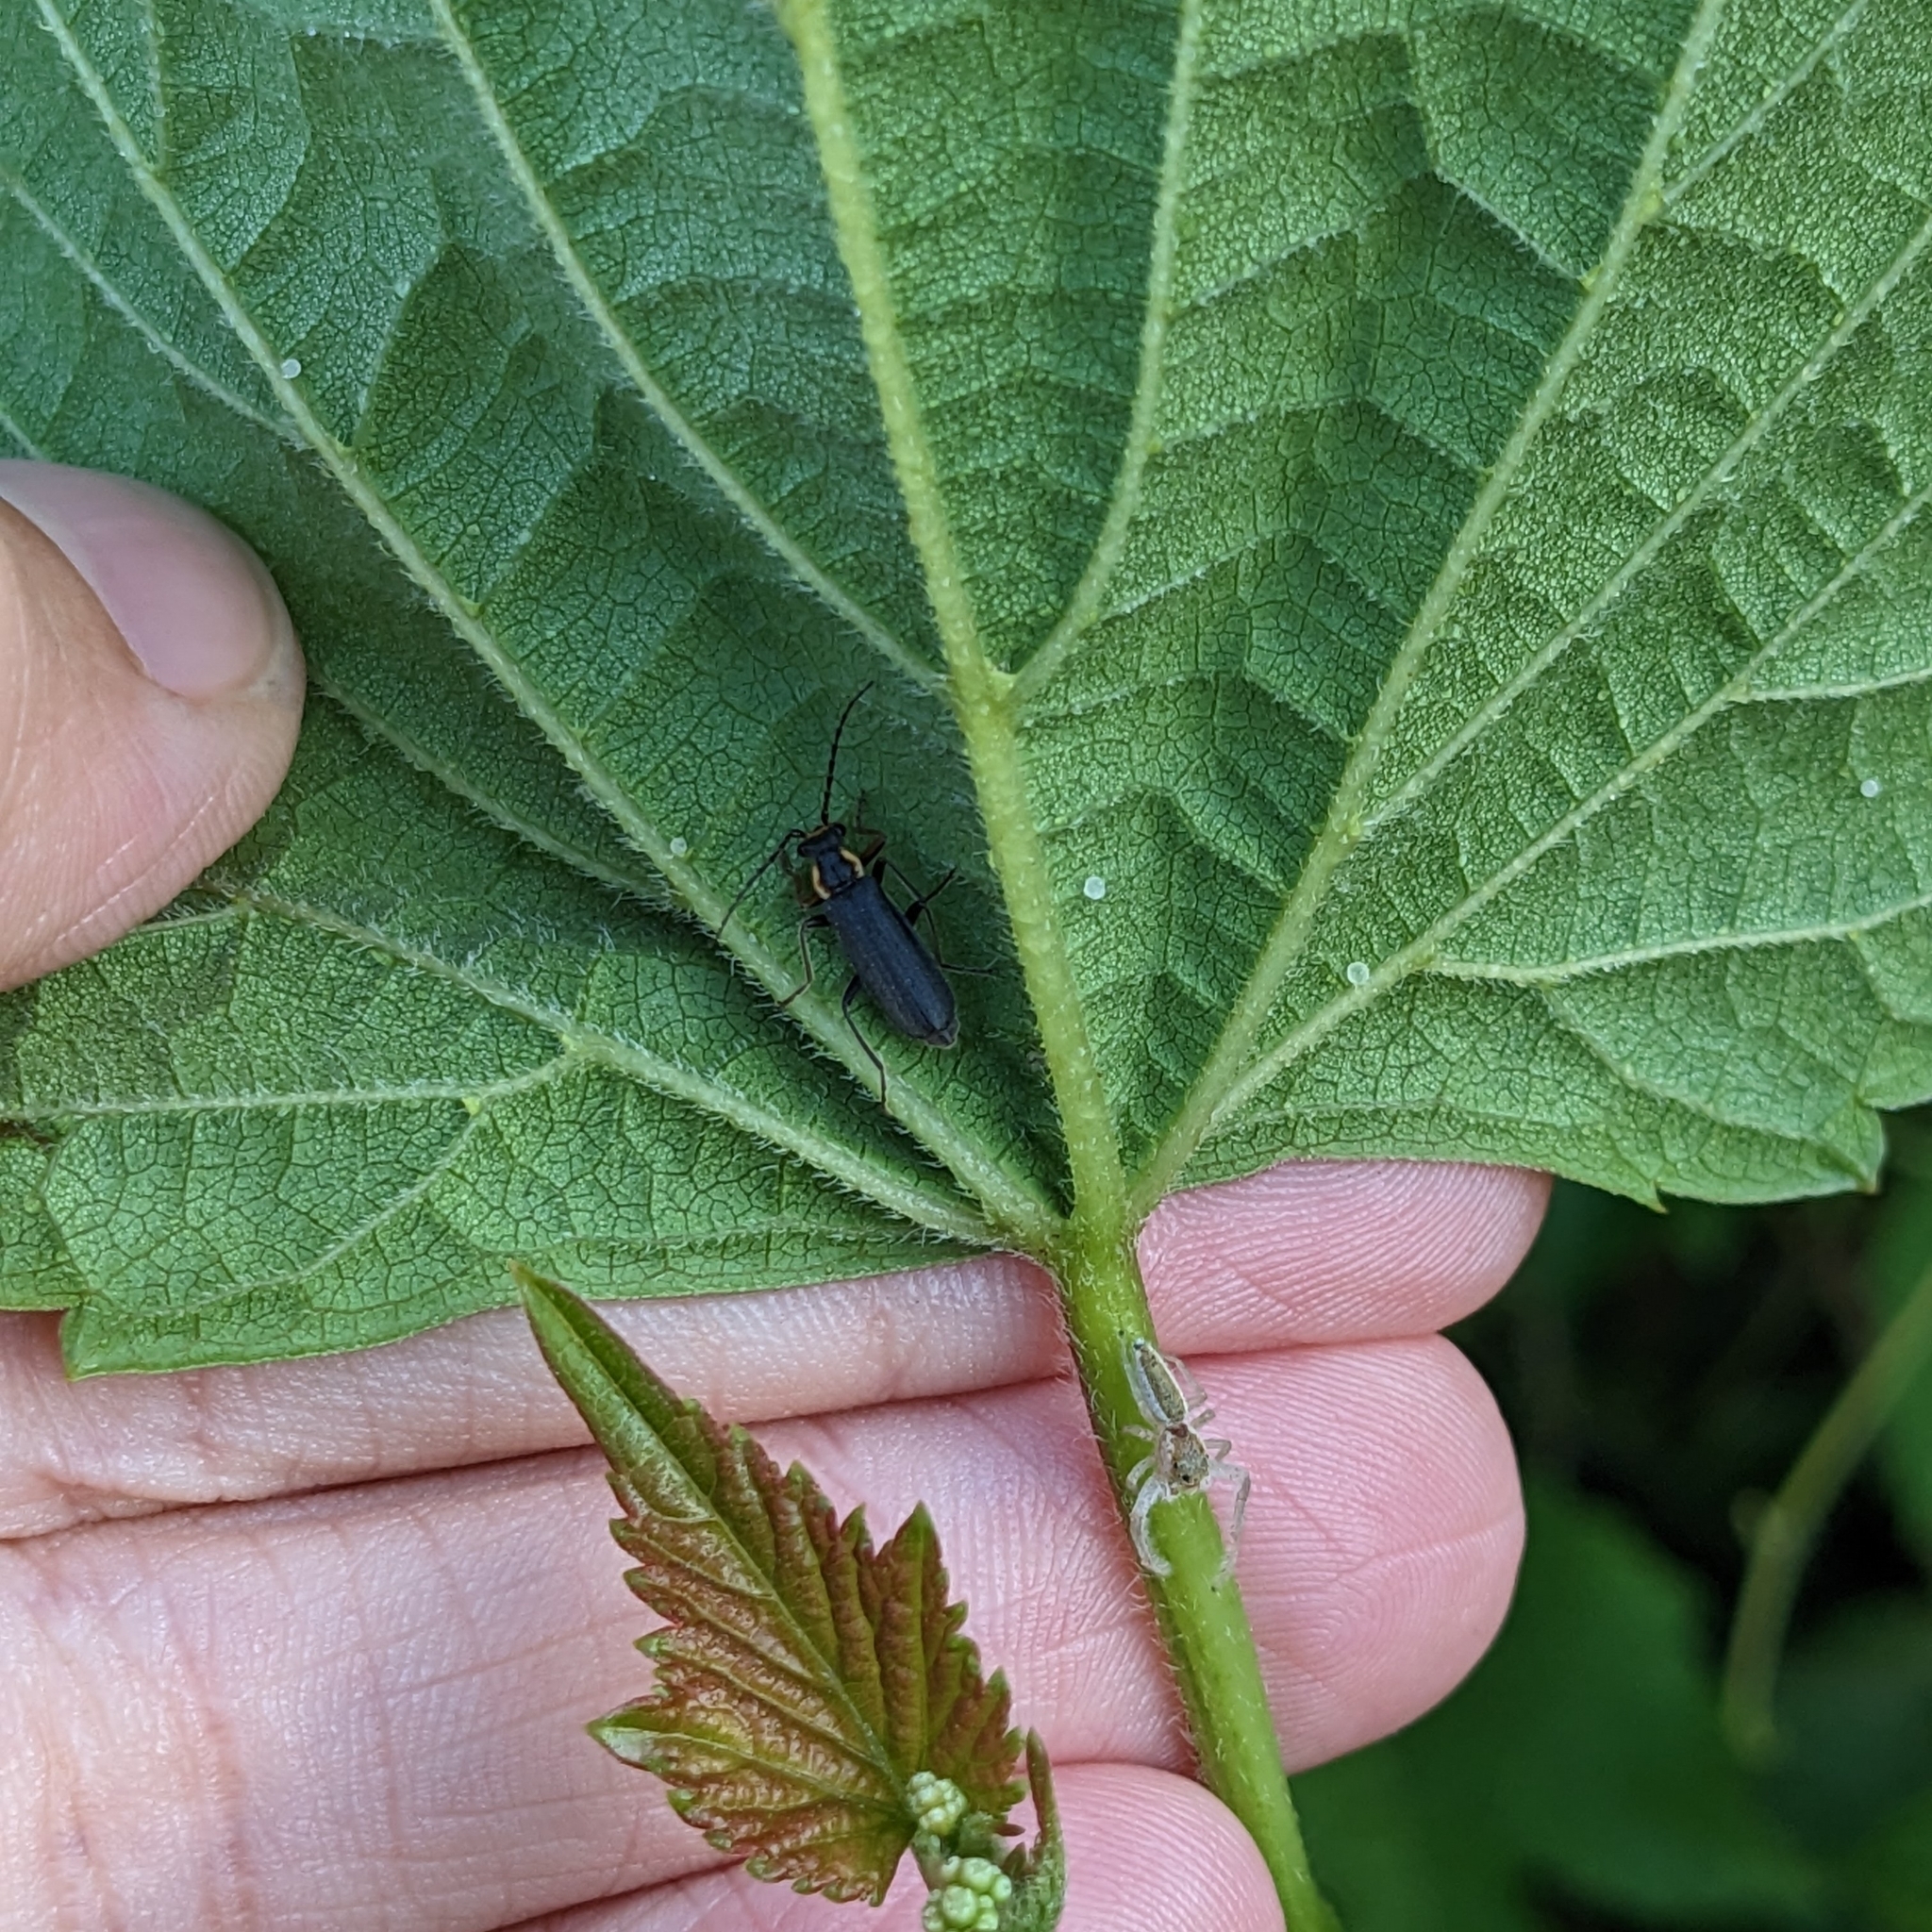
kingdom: Animalia
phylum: Arthropoda
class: Arachnida
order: Araneae
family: Salticidae
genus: Hentzia
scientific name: Hentzia mitrata
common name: White-jawed jumping spider
